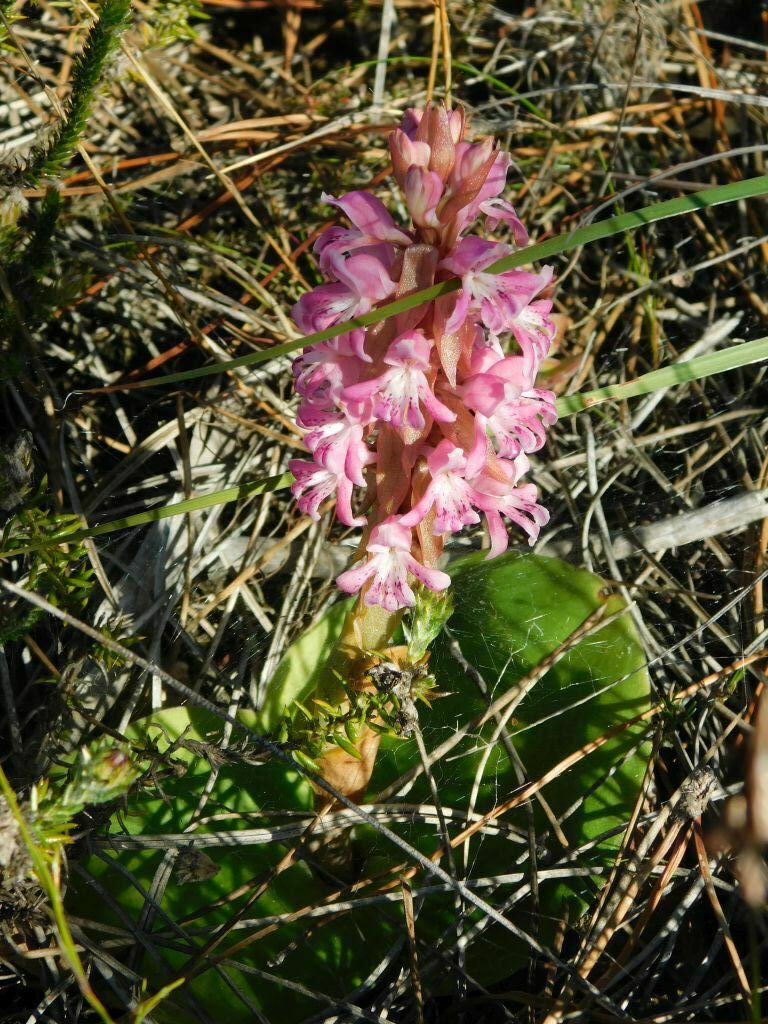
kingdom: Plantae
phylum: Tracheophyta
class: Liliopsida
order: Asparagales
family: Orchidaceae
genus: Satyrium
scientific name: Satyrium erectum
